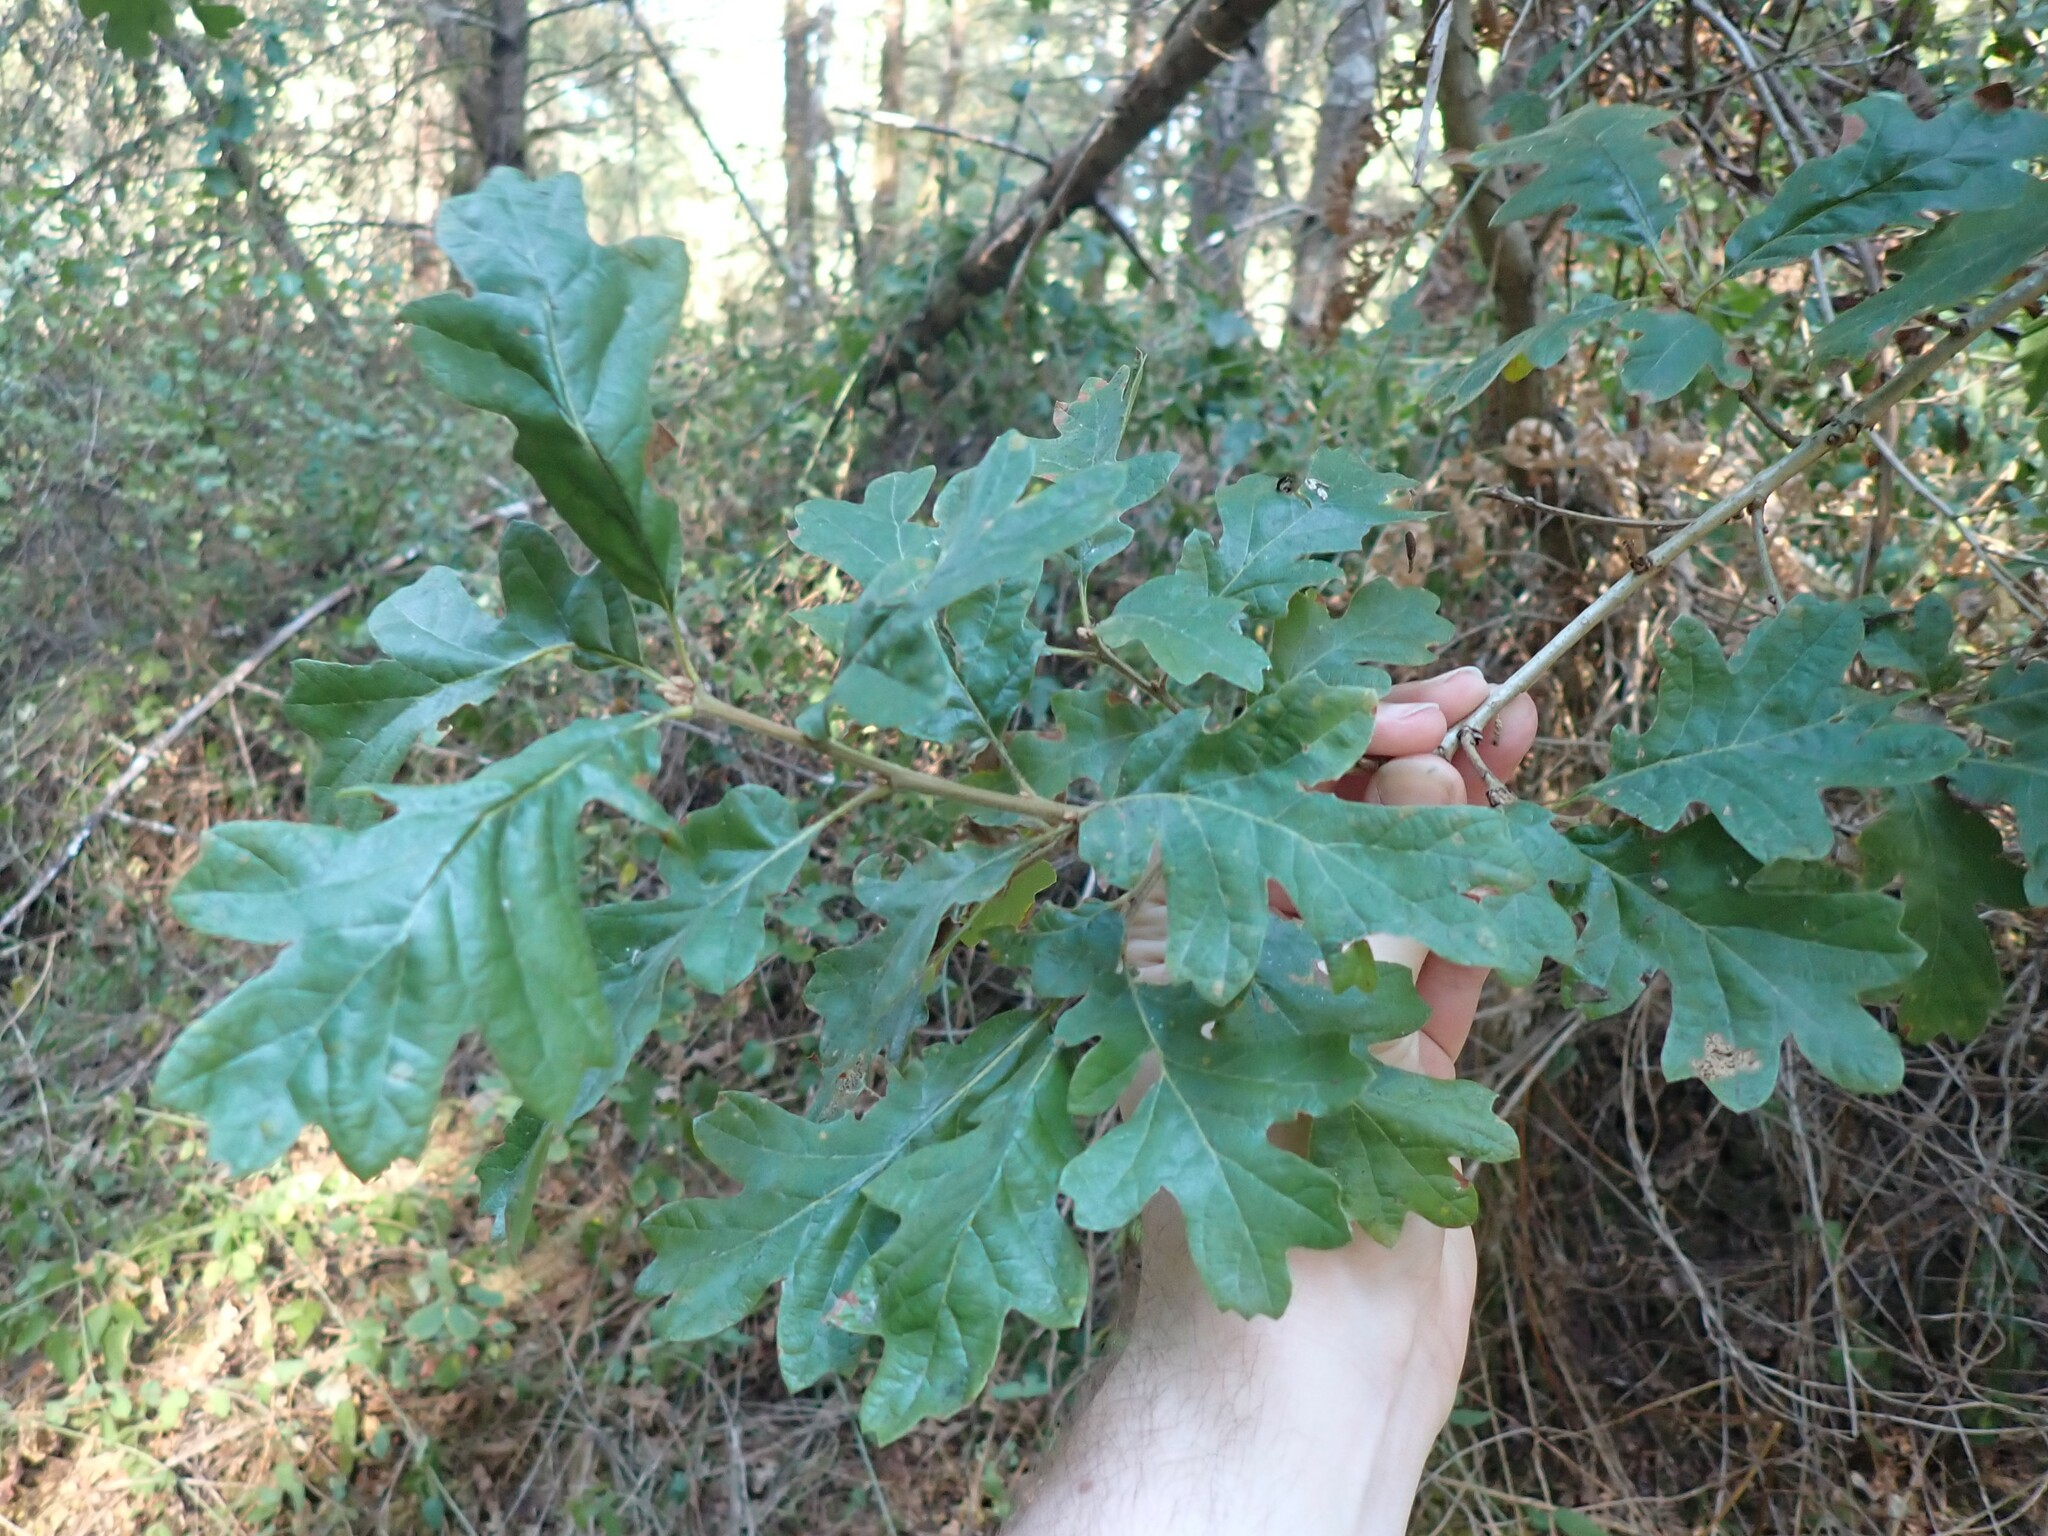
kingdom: Plantae
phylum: Tracheophyta
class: Magnoliopsida
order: Fagales
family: Fagaceae
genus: Quercus
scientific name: Quercus garryana
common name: Garry oak
